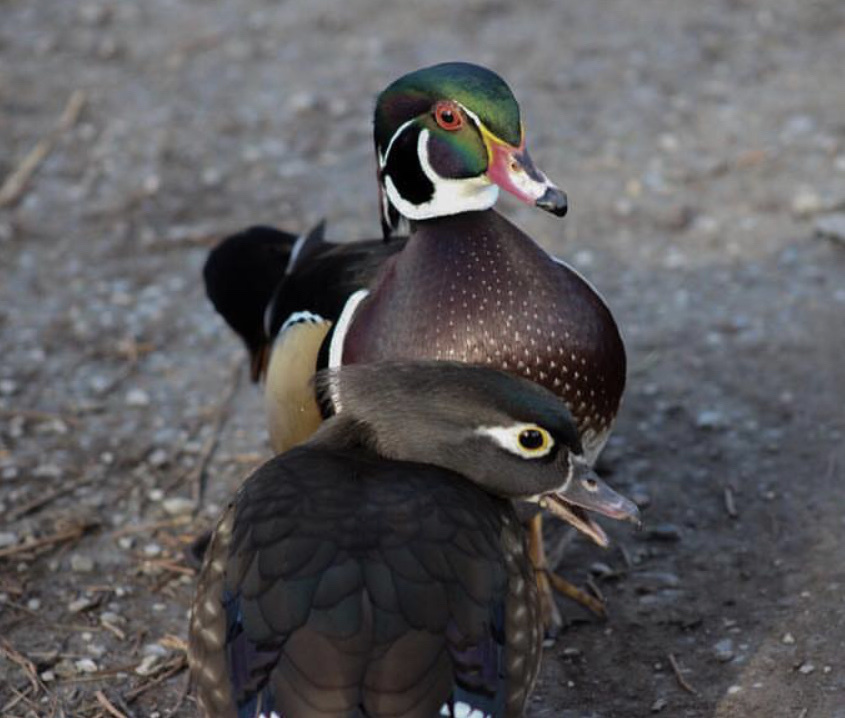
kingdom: Animalia
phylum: Chordata
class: Aves
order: Anseriformes
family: Anatidae
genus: Aix
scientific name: Aix sponsa
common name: Wood duck
